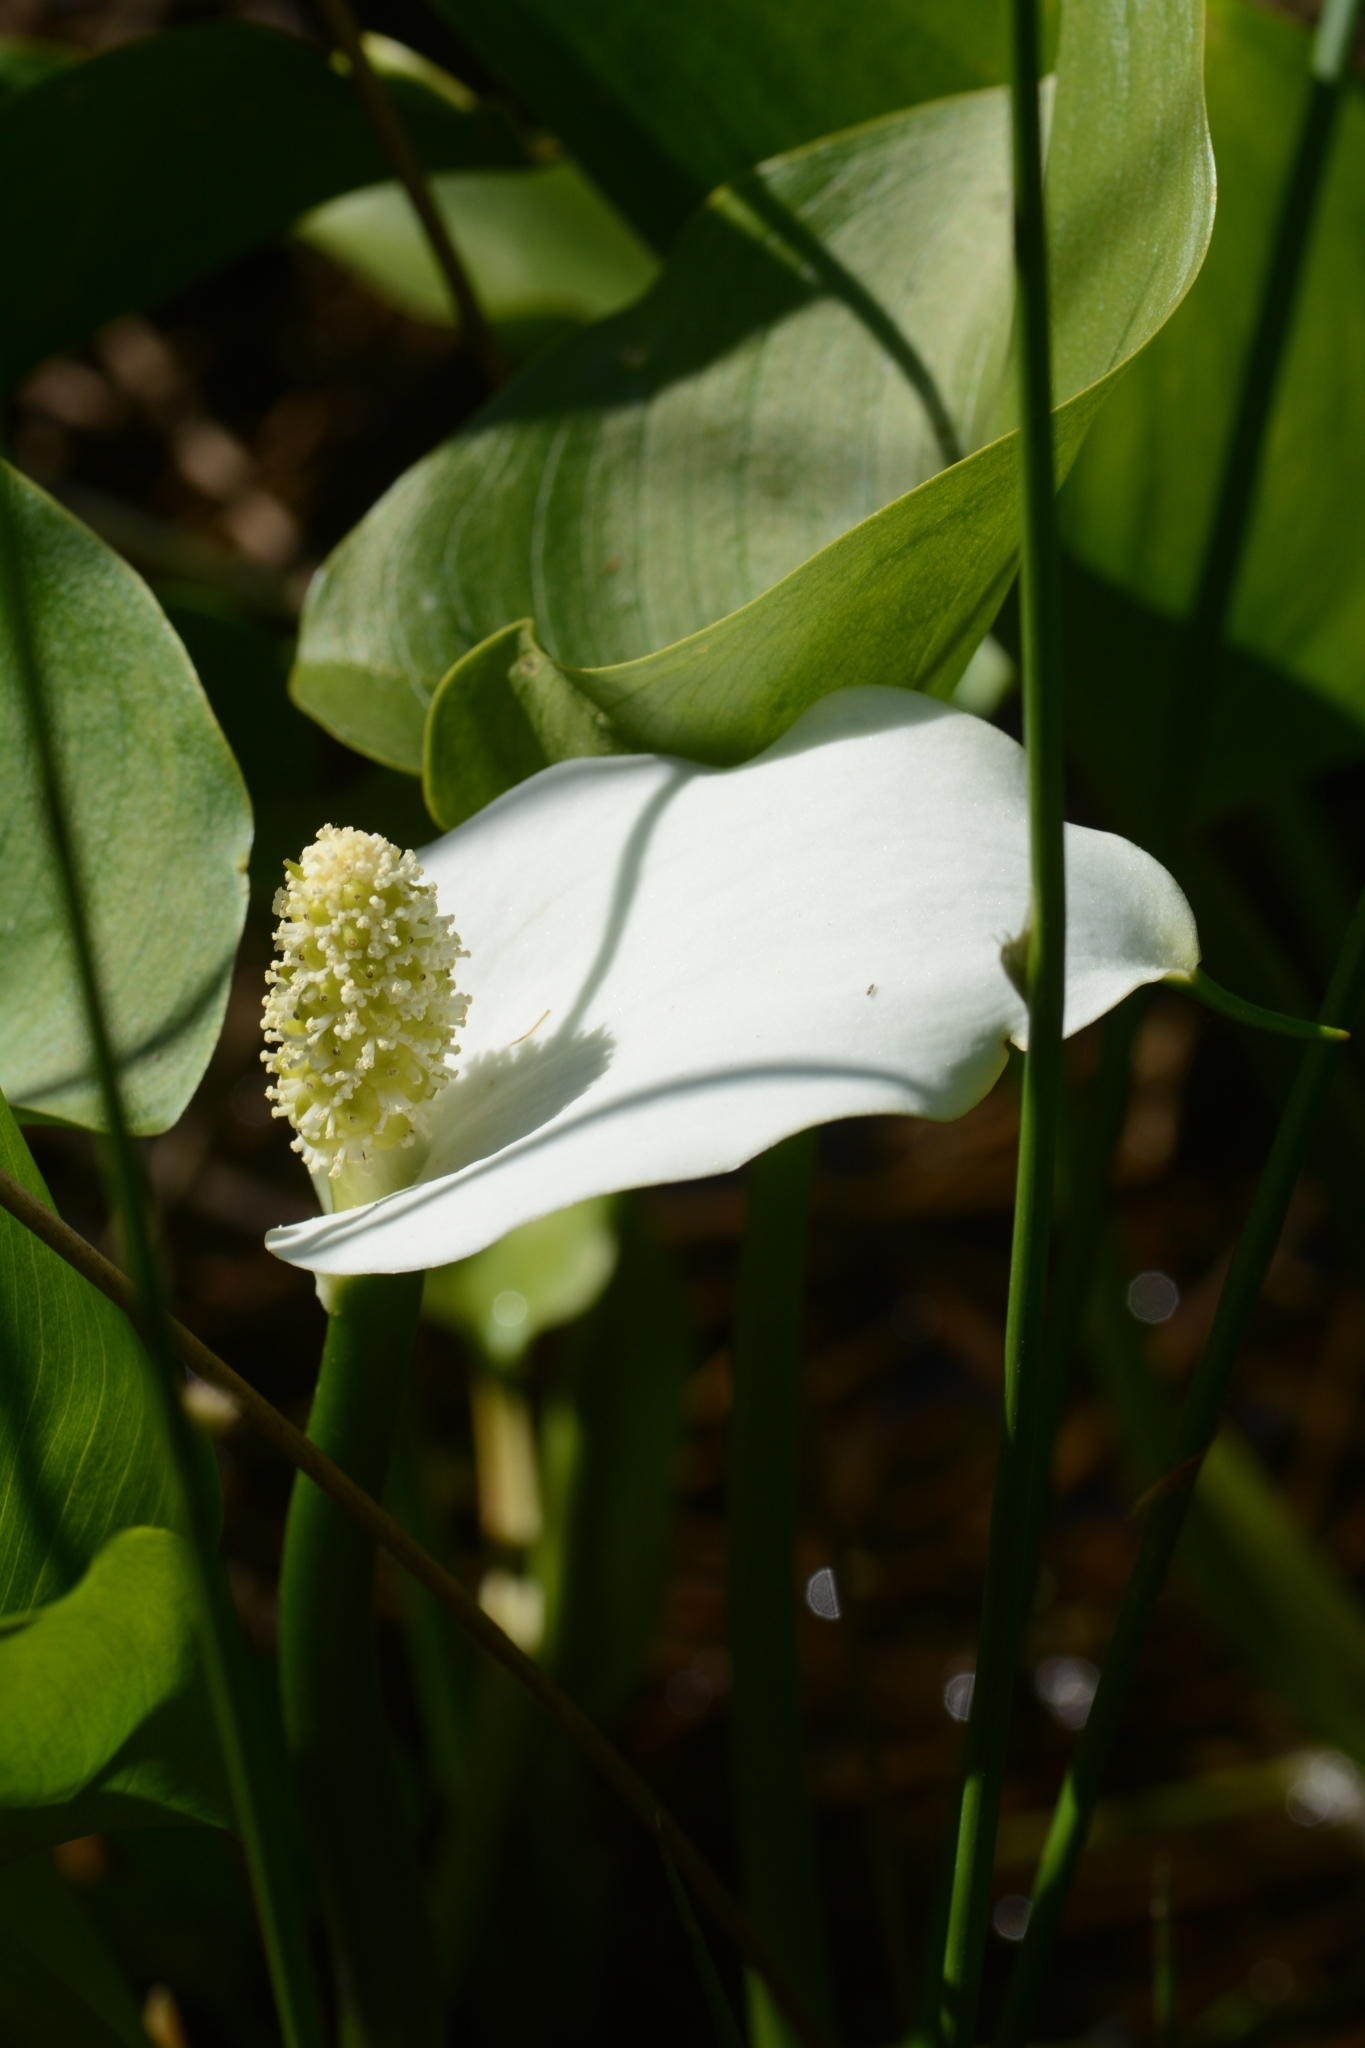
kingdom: Plantae
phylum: Tracheophyta
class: Liliopsida
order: Alismatales
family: Araceae
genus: Calla
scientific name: Calla palustris
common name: Bog arum
